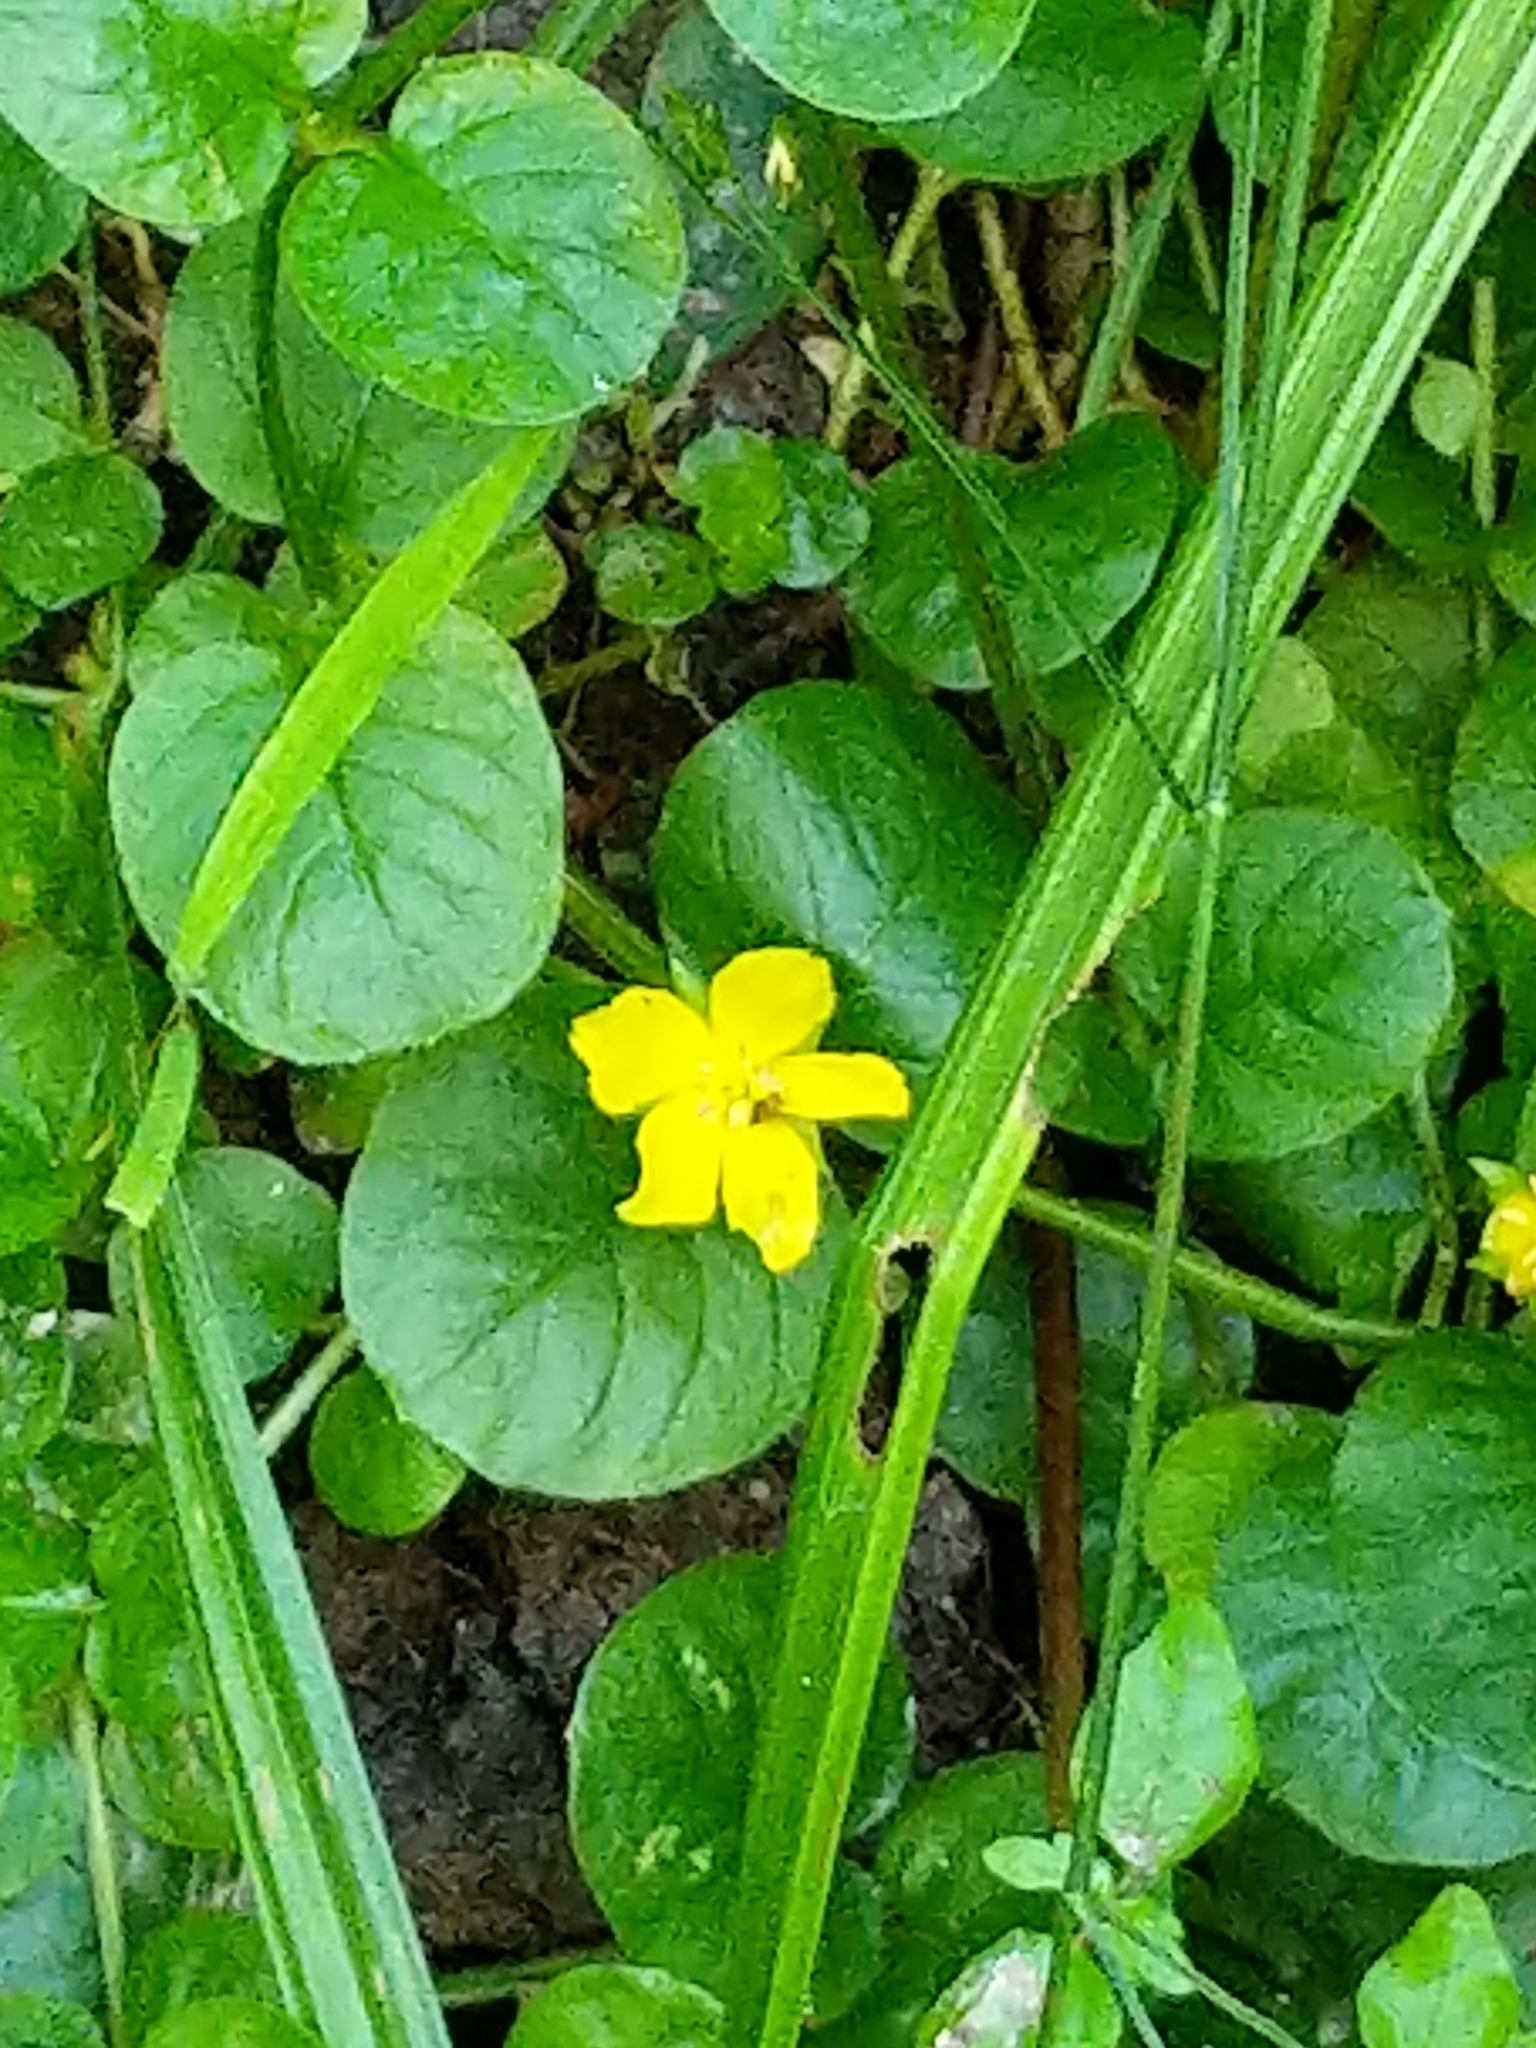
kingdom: Plantae
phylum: Tracheophyta
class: Magnoliopsida
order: Ericales
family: Primulaceae
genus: Lysimachia
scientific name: Lysimachia nummularia
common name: Moneywort
